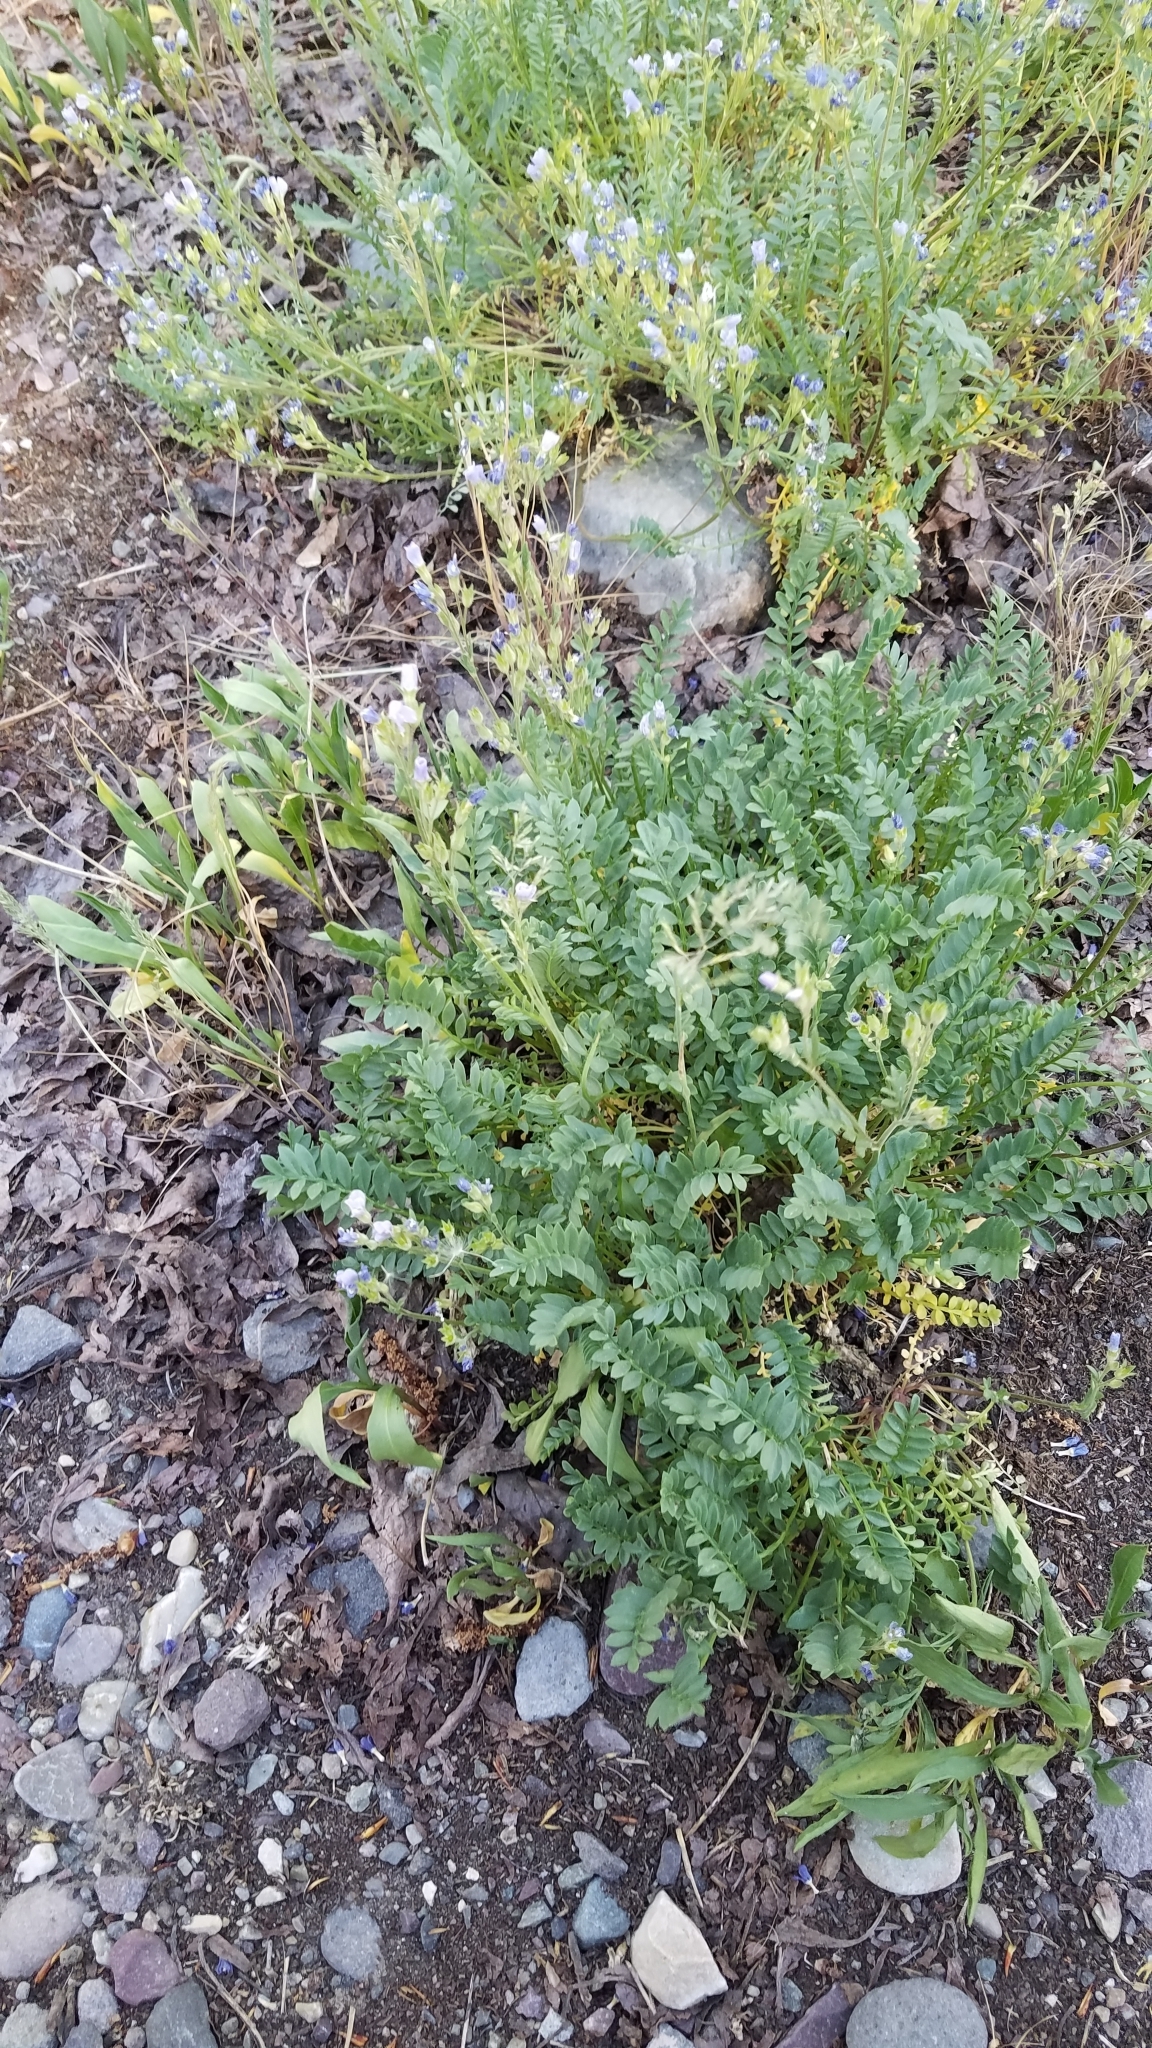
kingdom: Plantae
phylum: Tracheophyta
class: Magnoliopsida
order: Ericales
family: Polemoniaceae
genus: Polemonium
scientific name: Polemonium pulcherrimum
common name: Short jacob's-ladder
